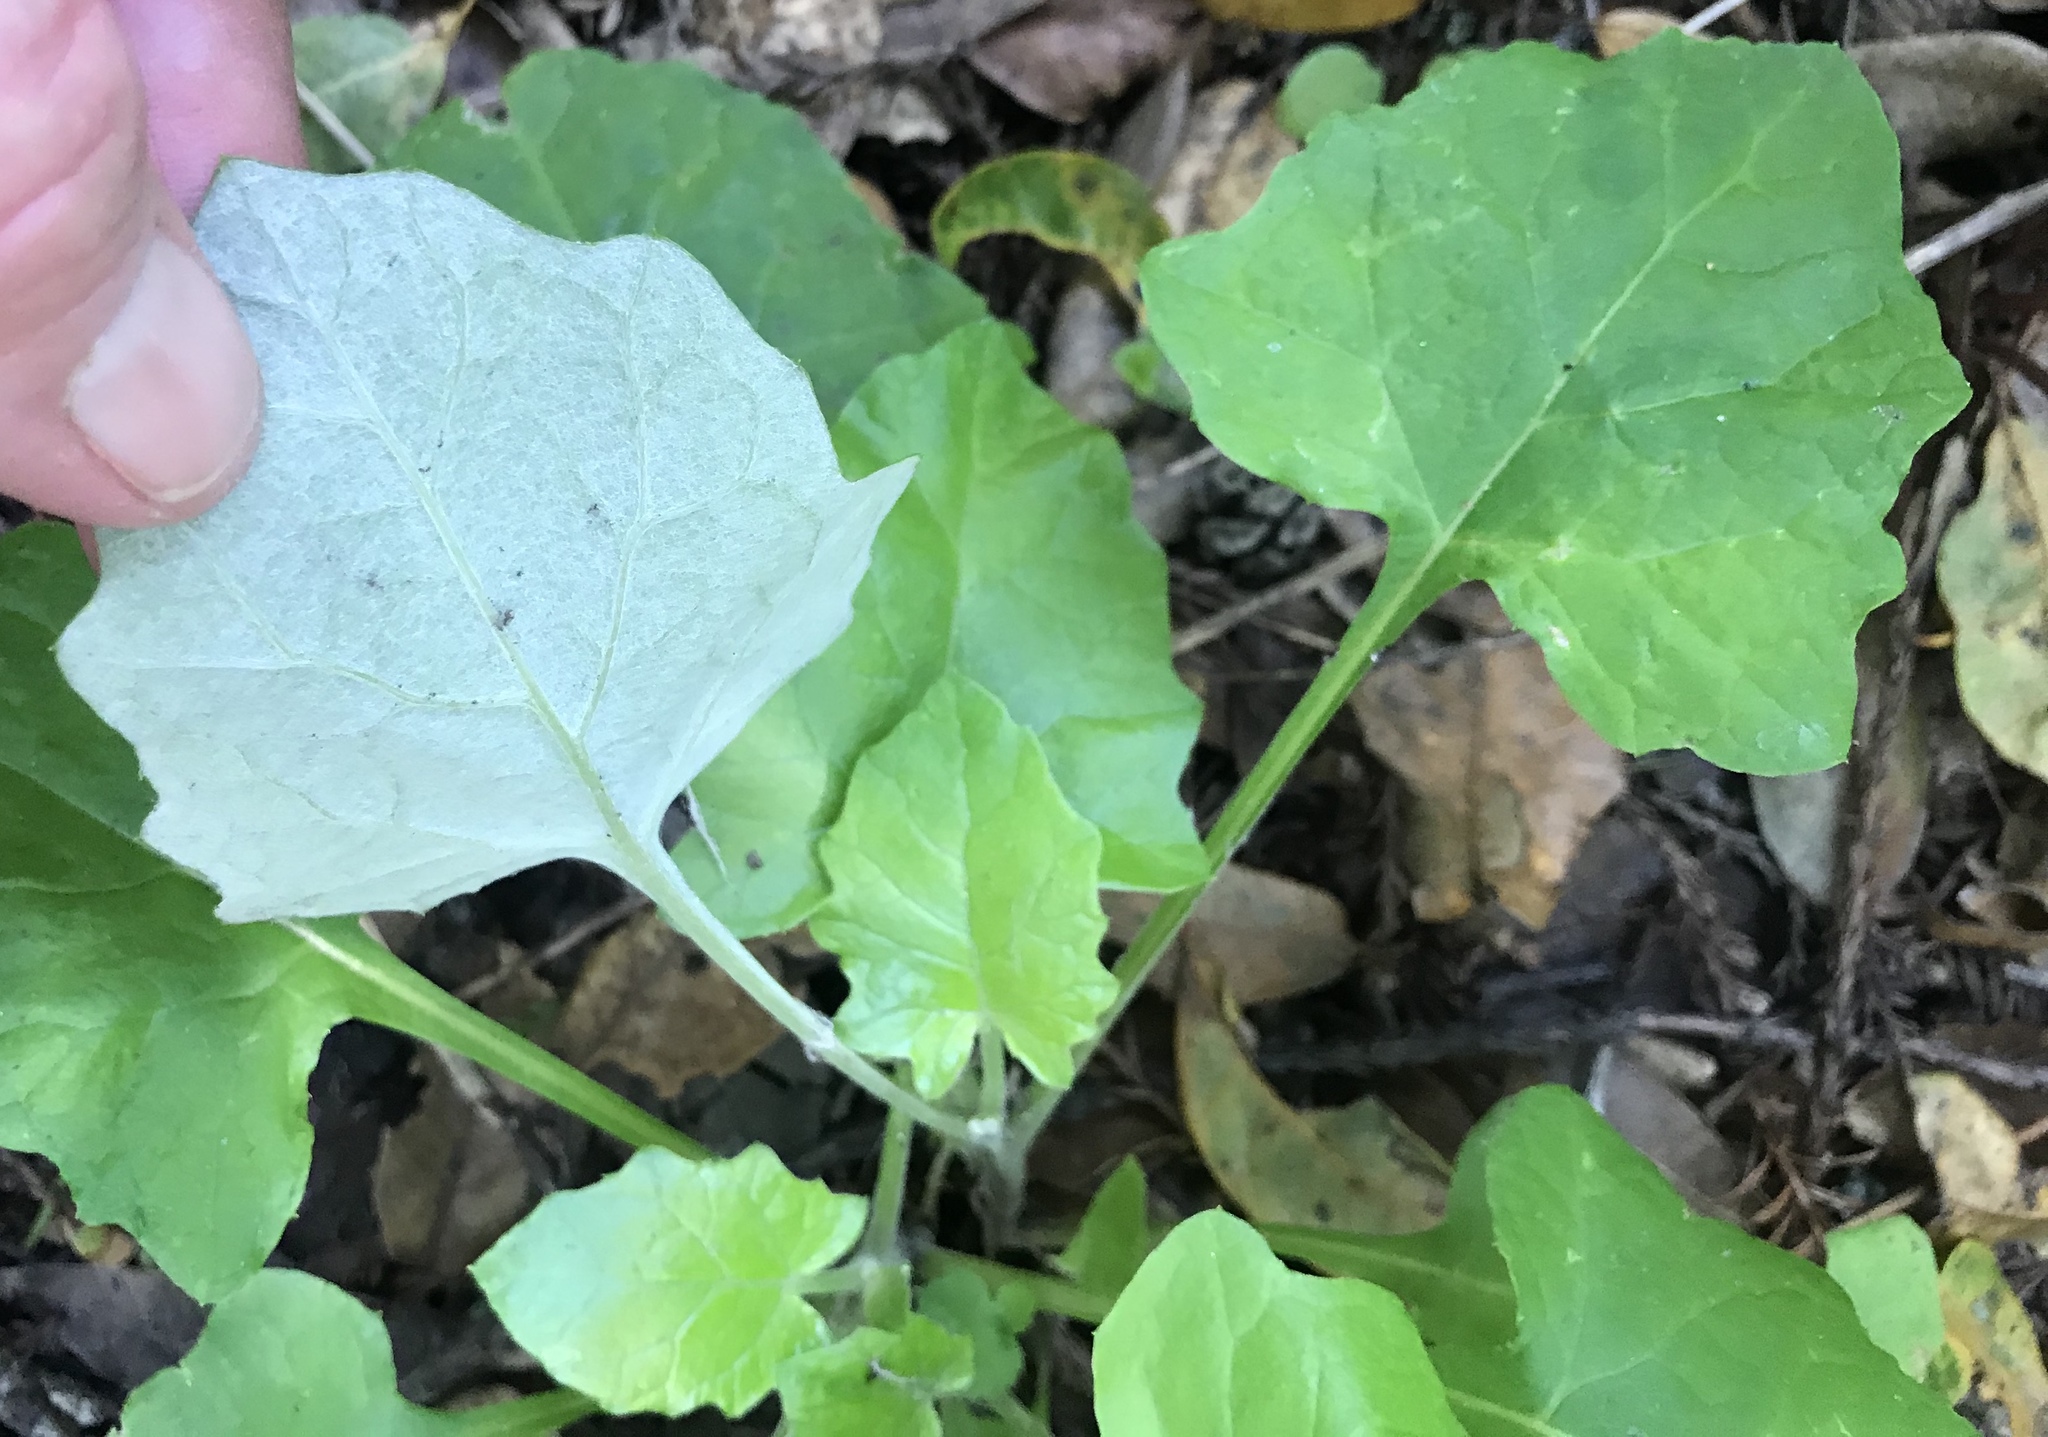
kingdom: Plantae
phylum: Tracheophyta
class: Magnoliopsida
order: Asterales
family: Asteraceae
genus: Adenocaulon
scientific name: Adenocaulon bicolor
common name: Trailplant
